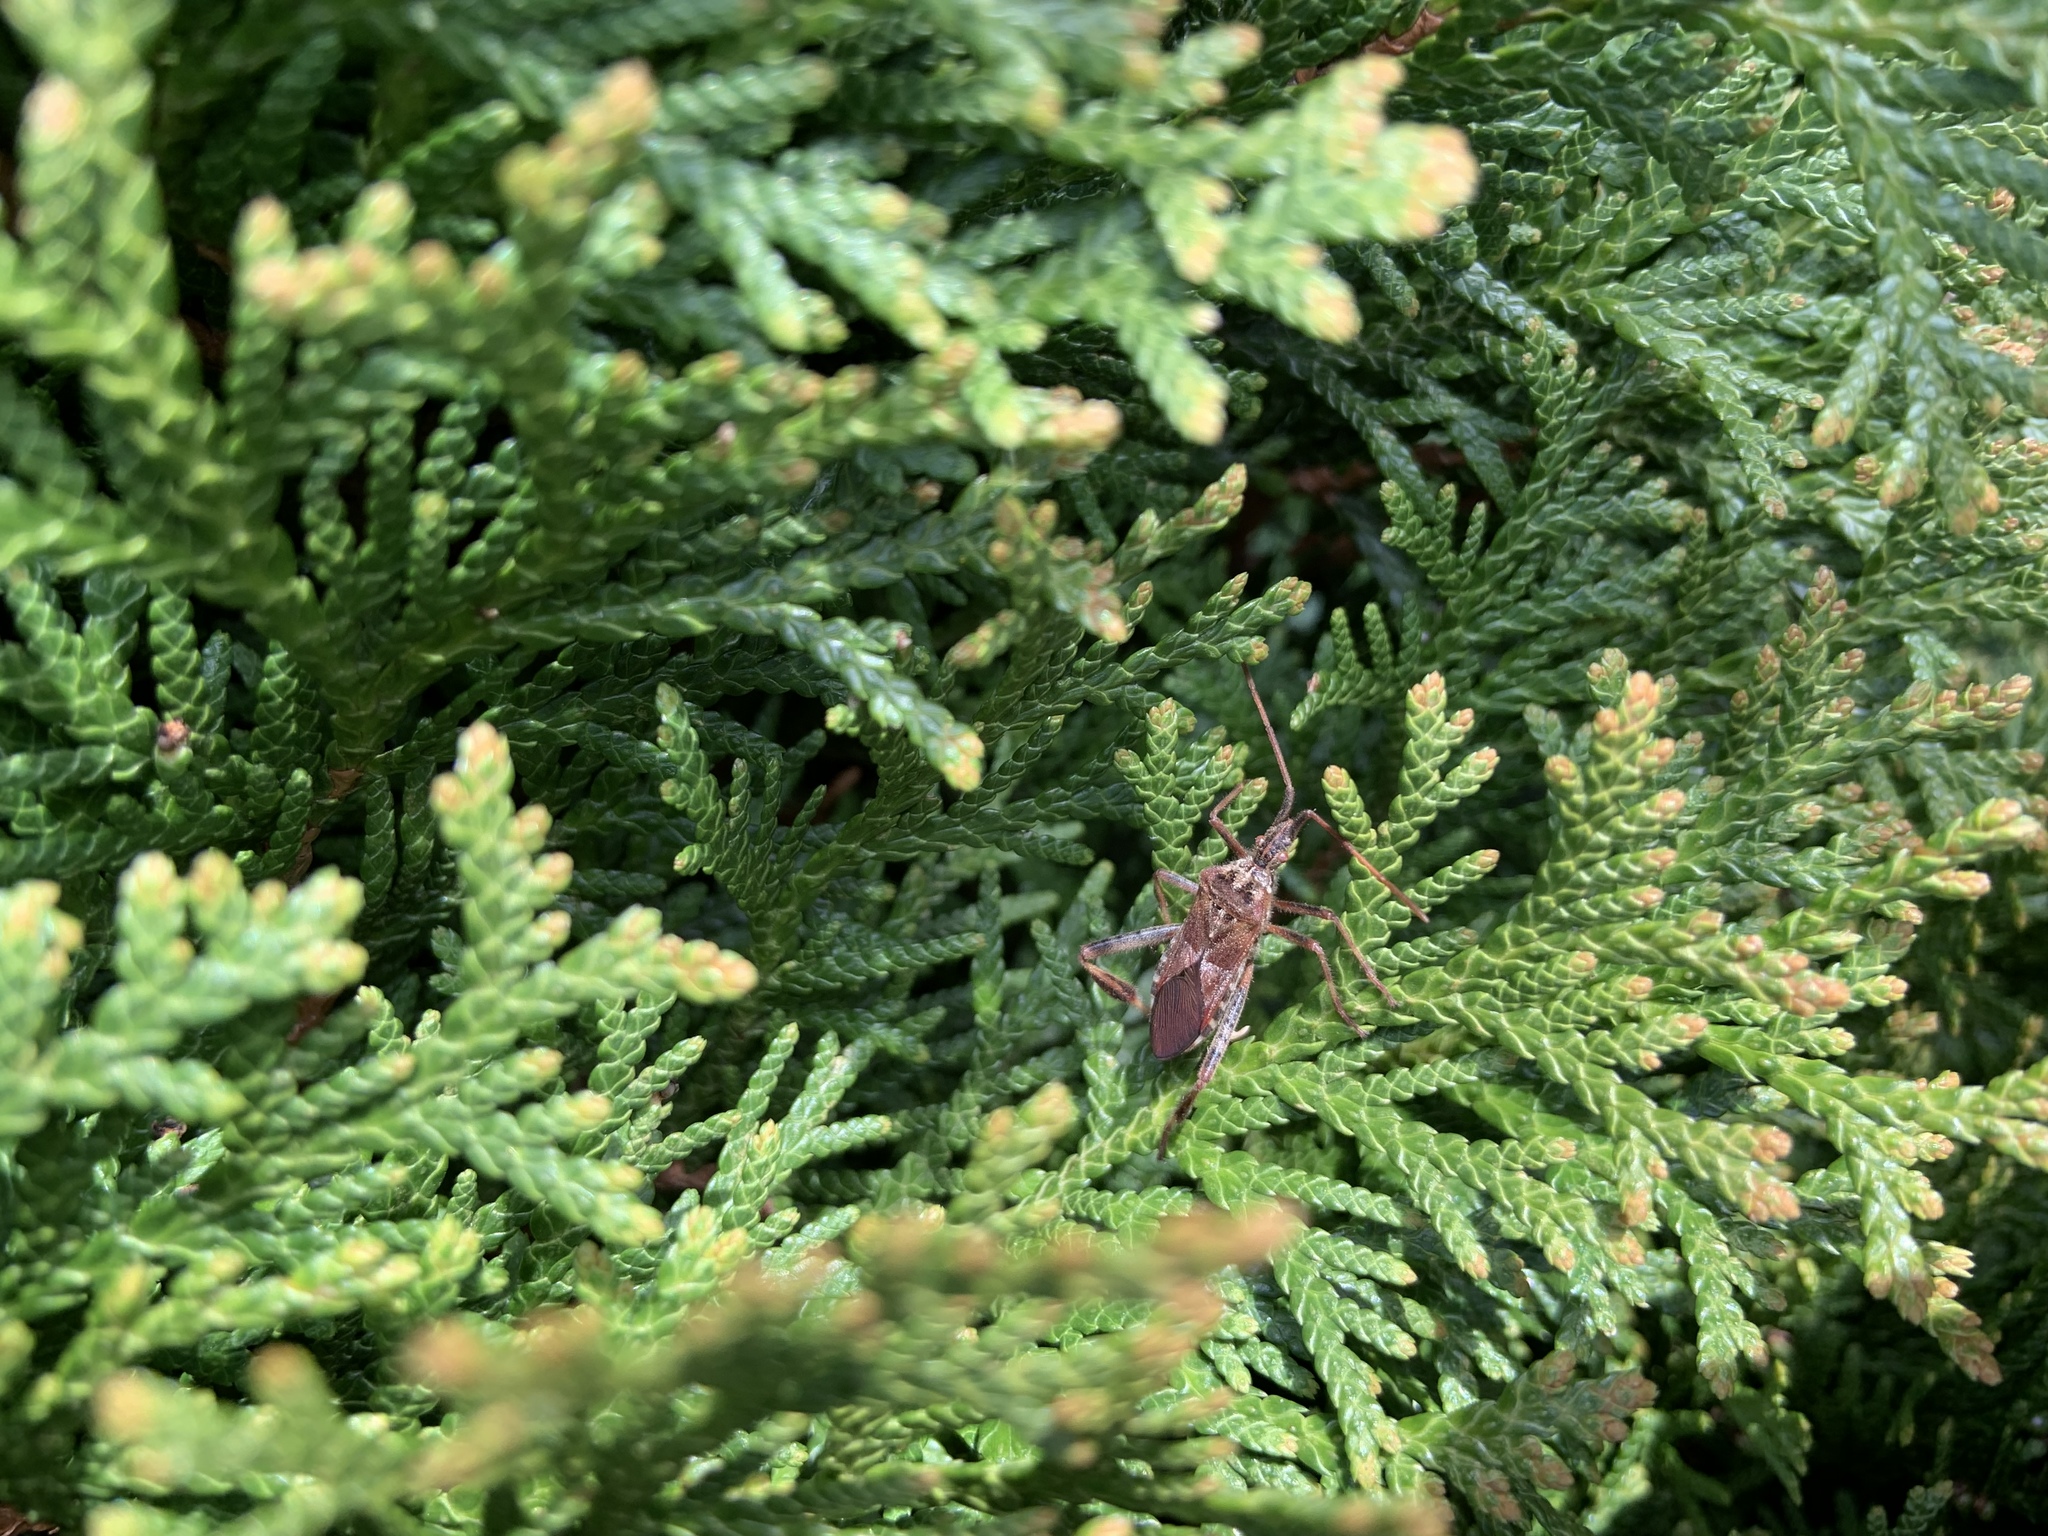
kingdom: Animalia
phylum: Arthropoda
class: Insecta
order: Hemiptera
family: Coreidae
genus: Leptoglossus
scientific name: Leptoglossus occidentalis
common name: Western conifer-seed bug
